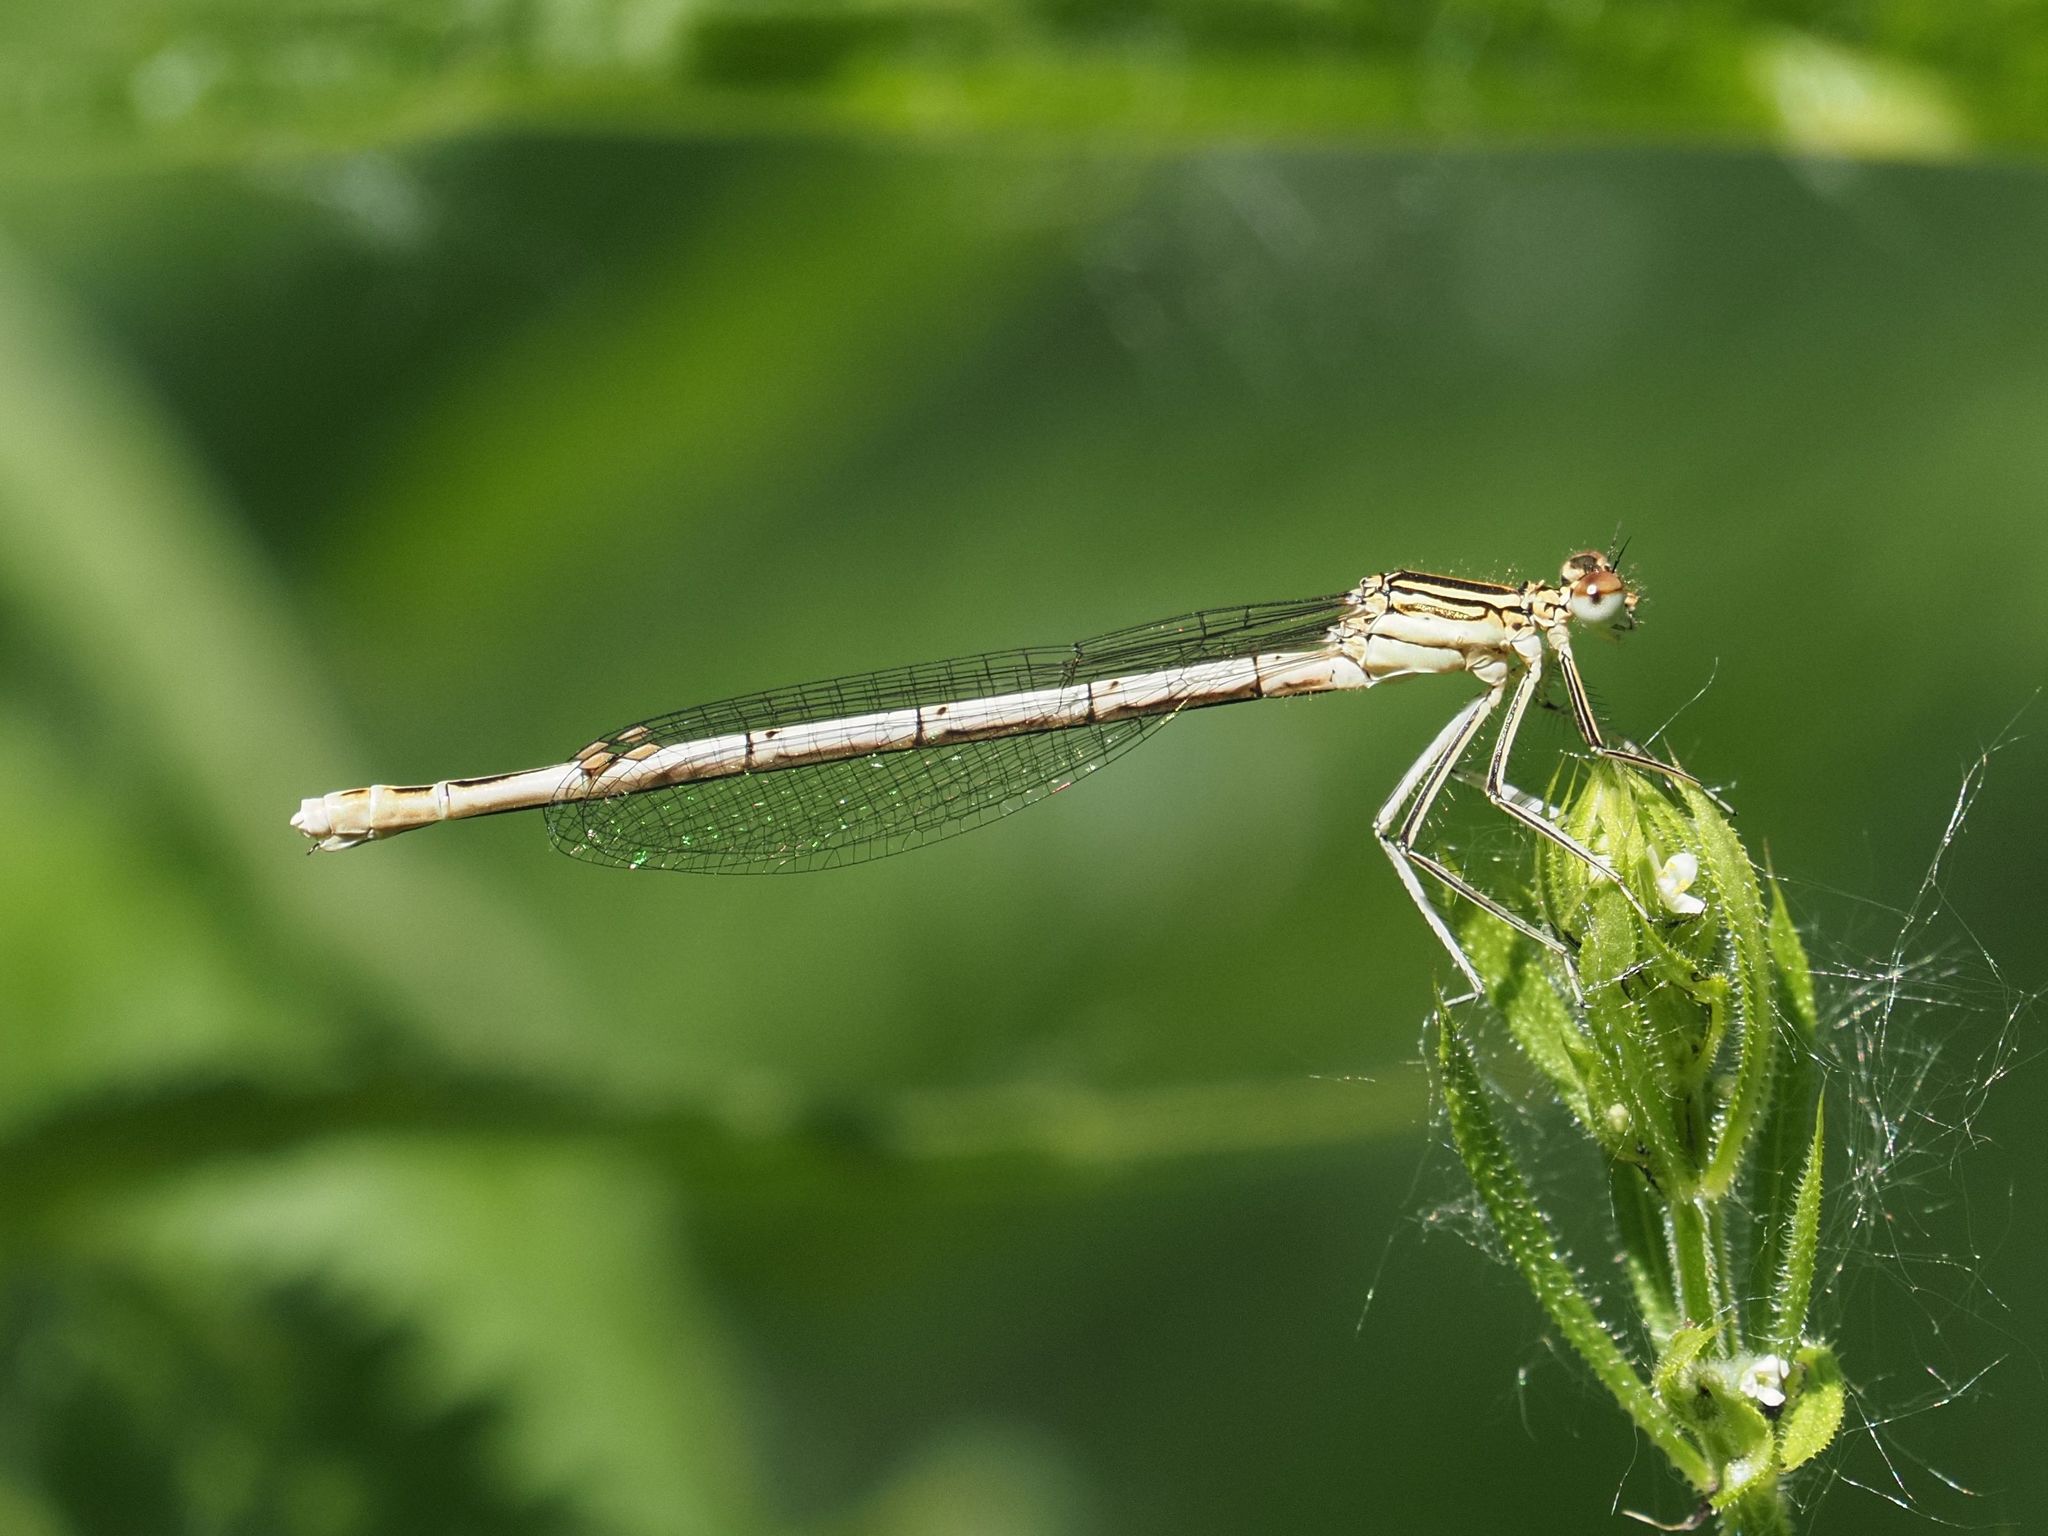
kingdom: Animalia
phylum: Arthropoda
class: Insecta
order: Odonata
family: Platycnemididae
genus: Platycnemis
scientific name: Platycnemis pennipes
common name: White-legged damselfly
